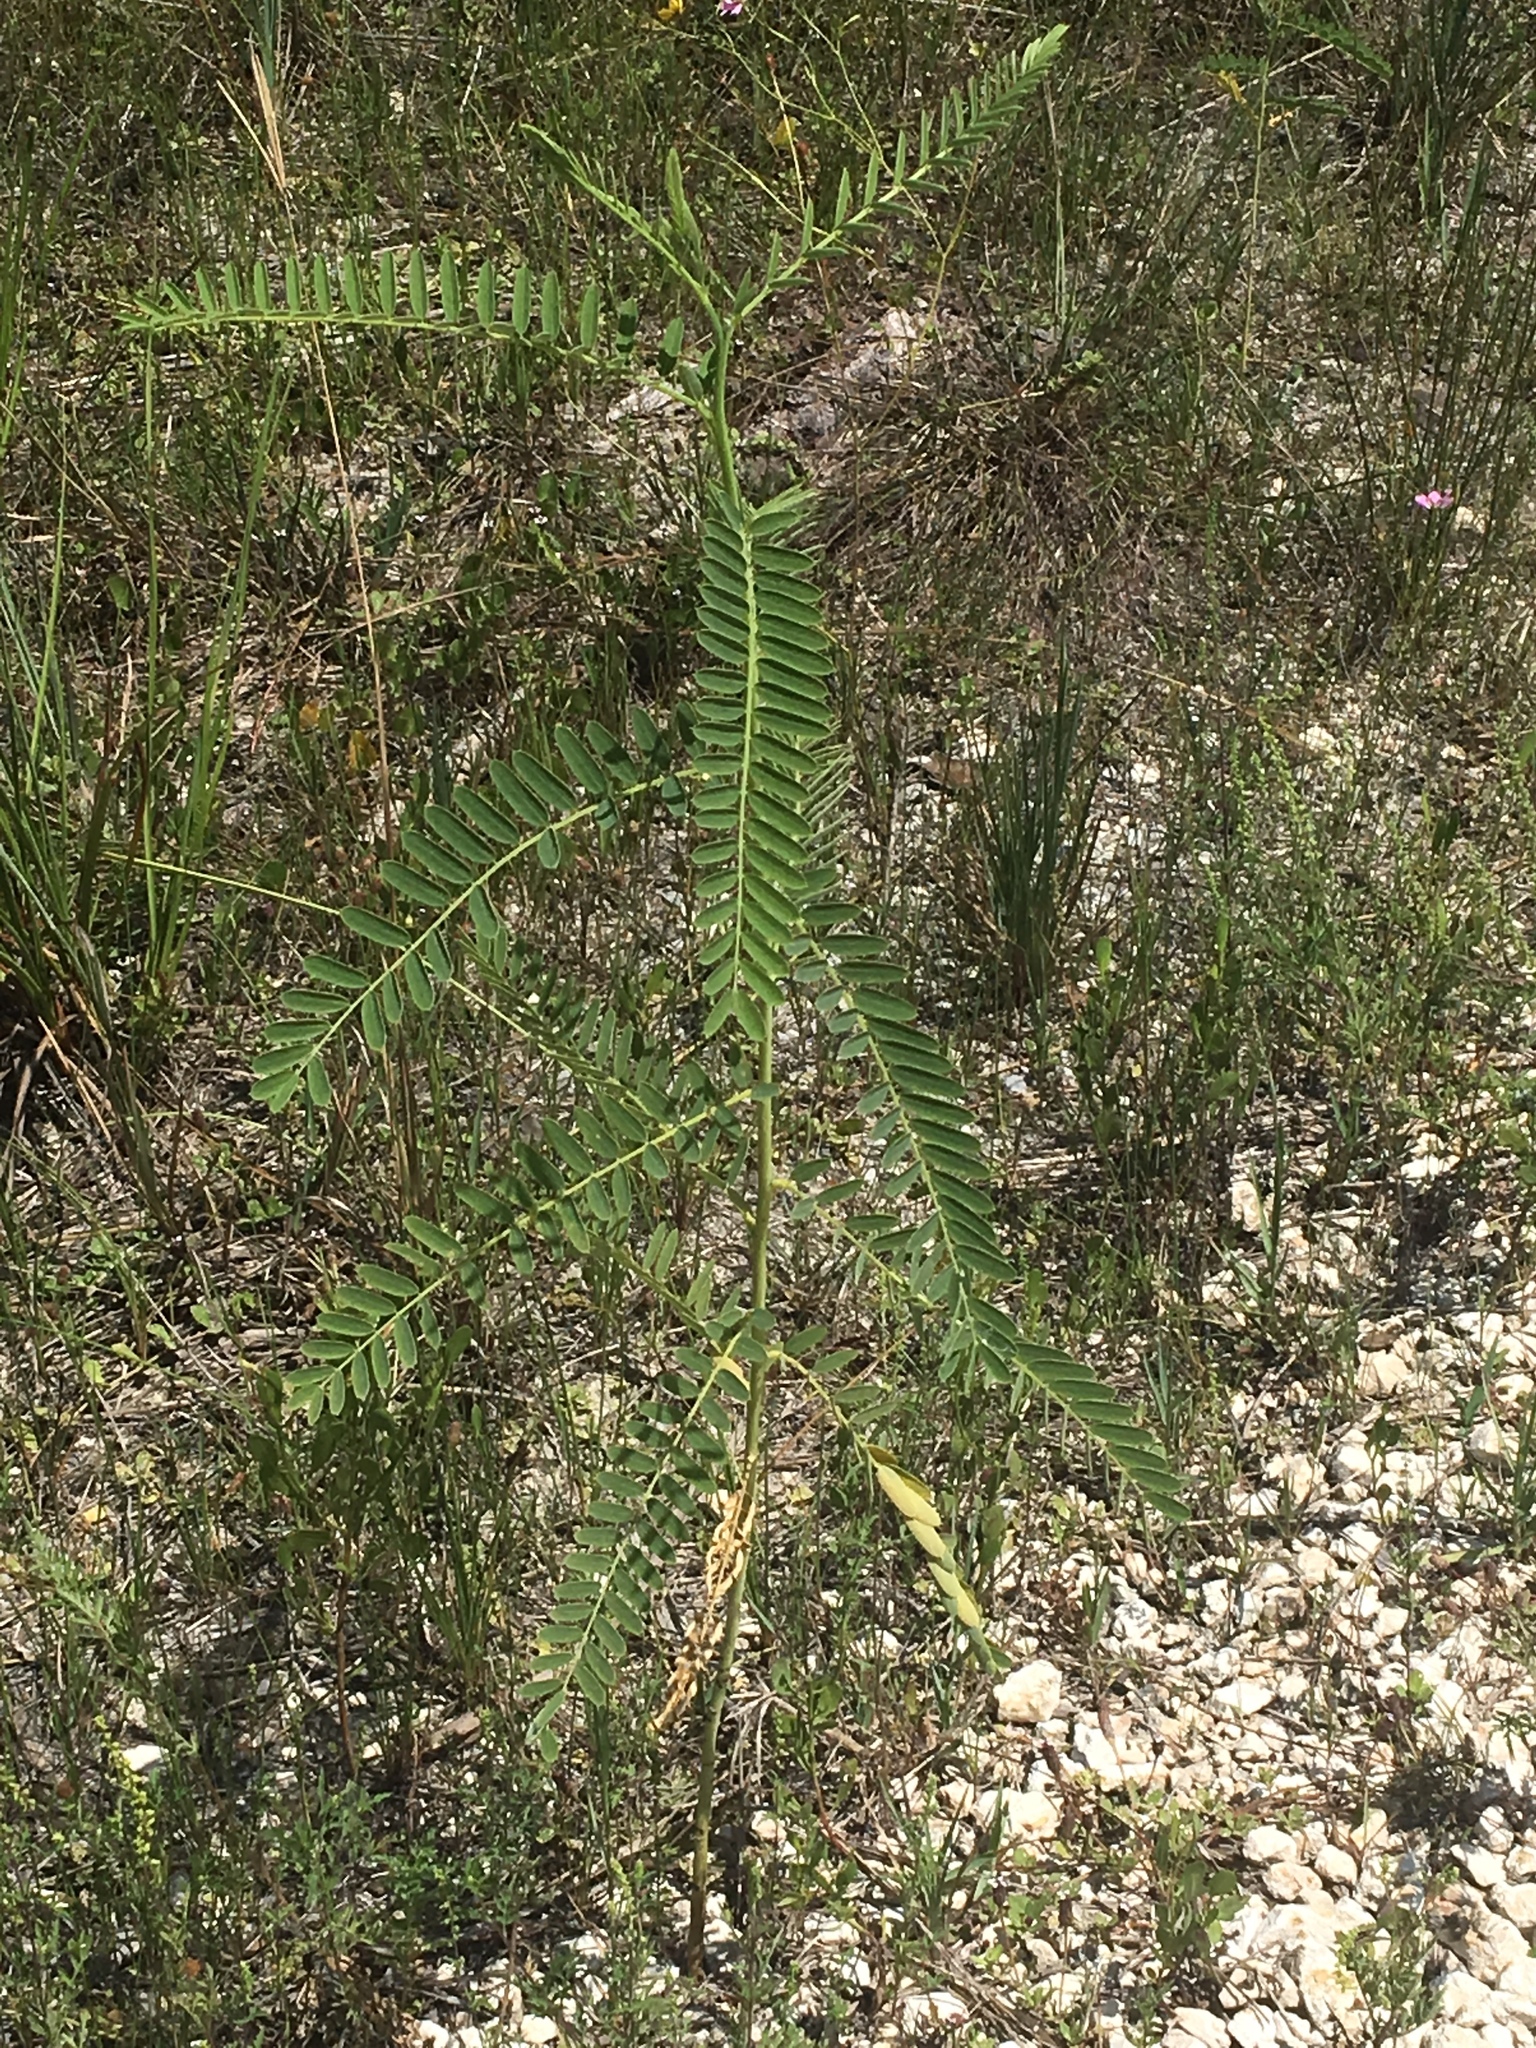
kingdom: Plantae
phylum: Tracheophyta
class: Magnoliopsida
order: Fabales
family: Fabaceae
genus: Sesbania
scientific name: Sesbania vesicaria
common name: Bagpod
